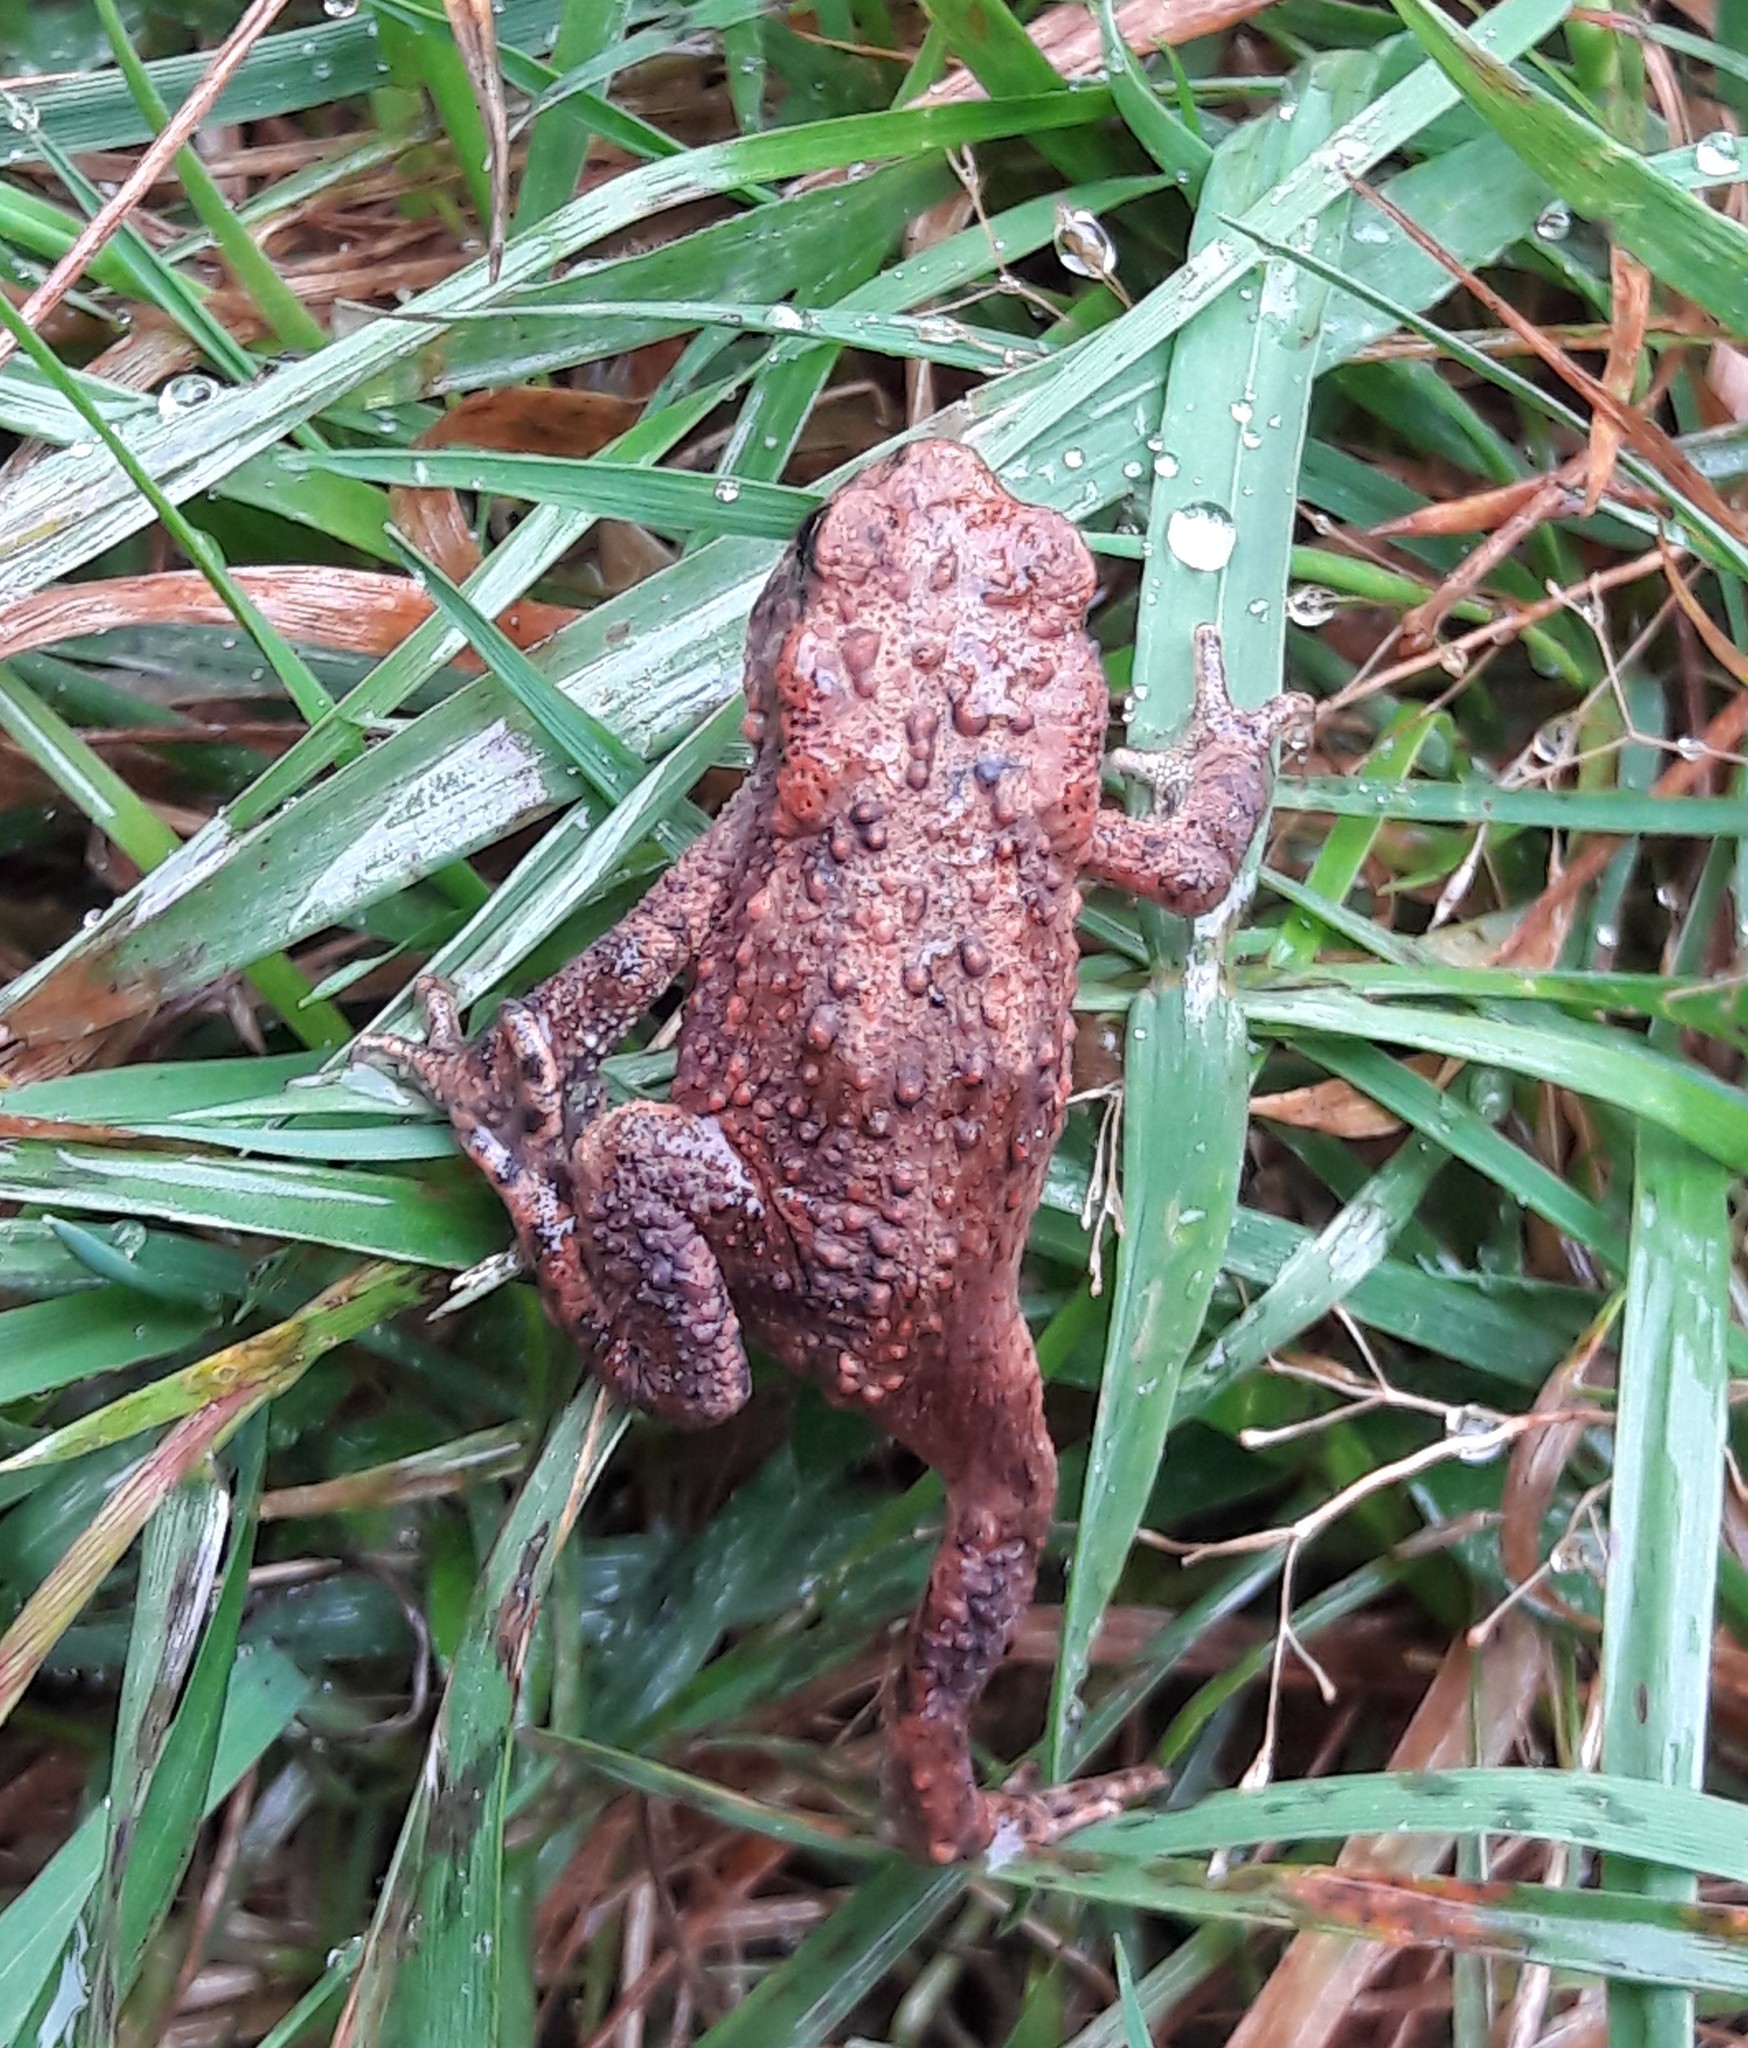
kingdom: Animalia
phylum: Chordata
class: Amphibia
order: Anura
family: Bufonidae
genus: Bufo
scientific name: Bufo bufo
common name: Common toad
